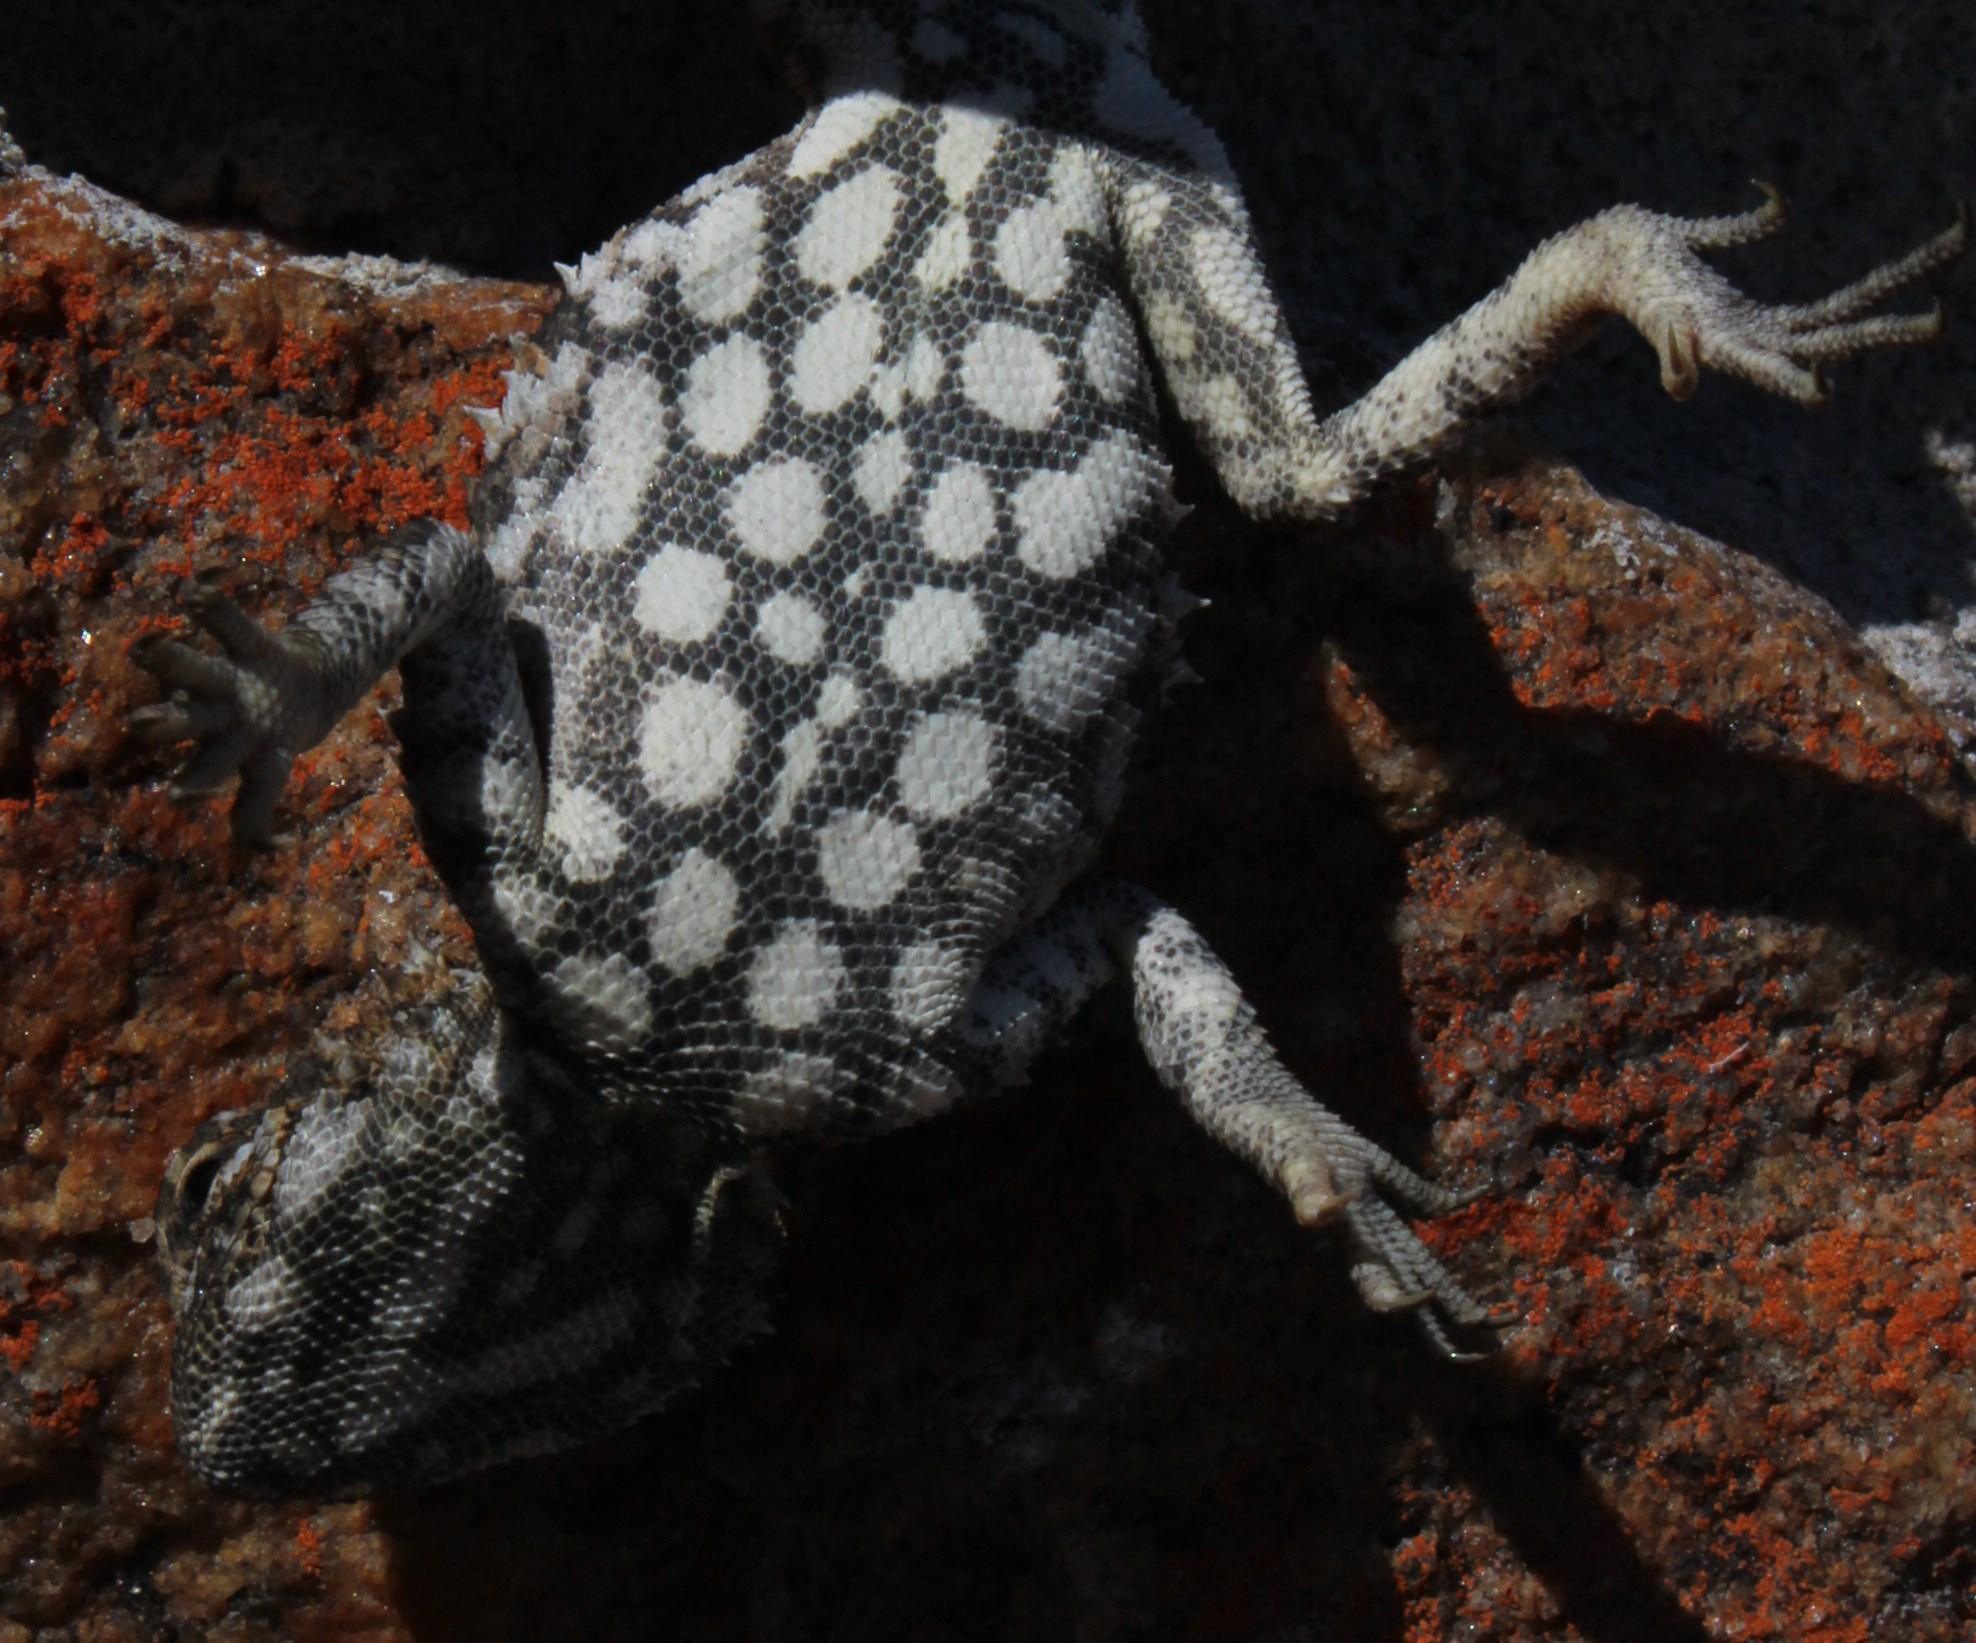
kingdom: Animalia
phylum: Chordata
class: Squamata
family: Agamidae
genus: Agama
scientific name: Agama hispida
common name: Common spiny agama
